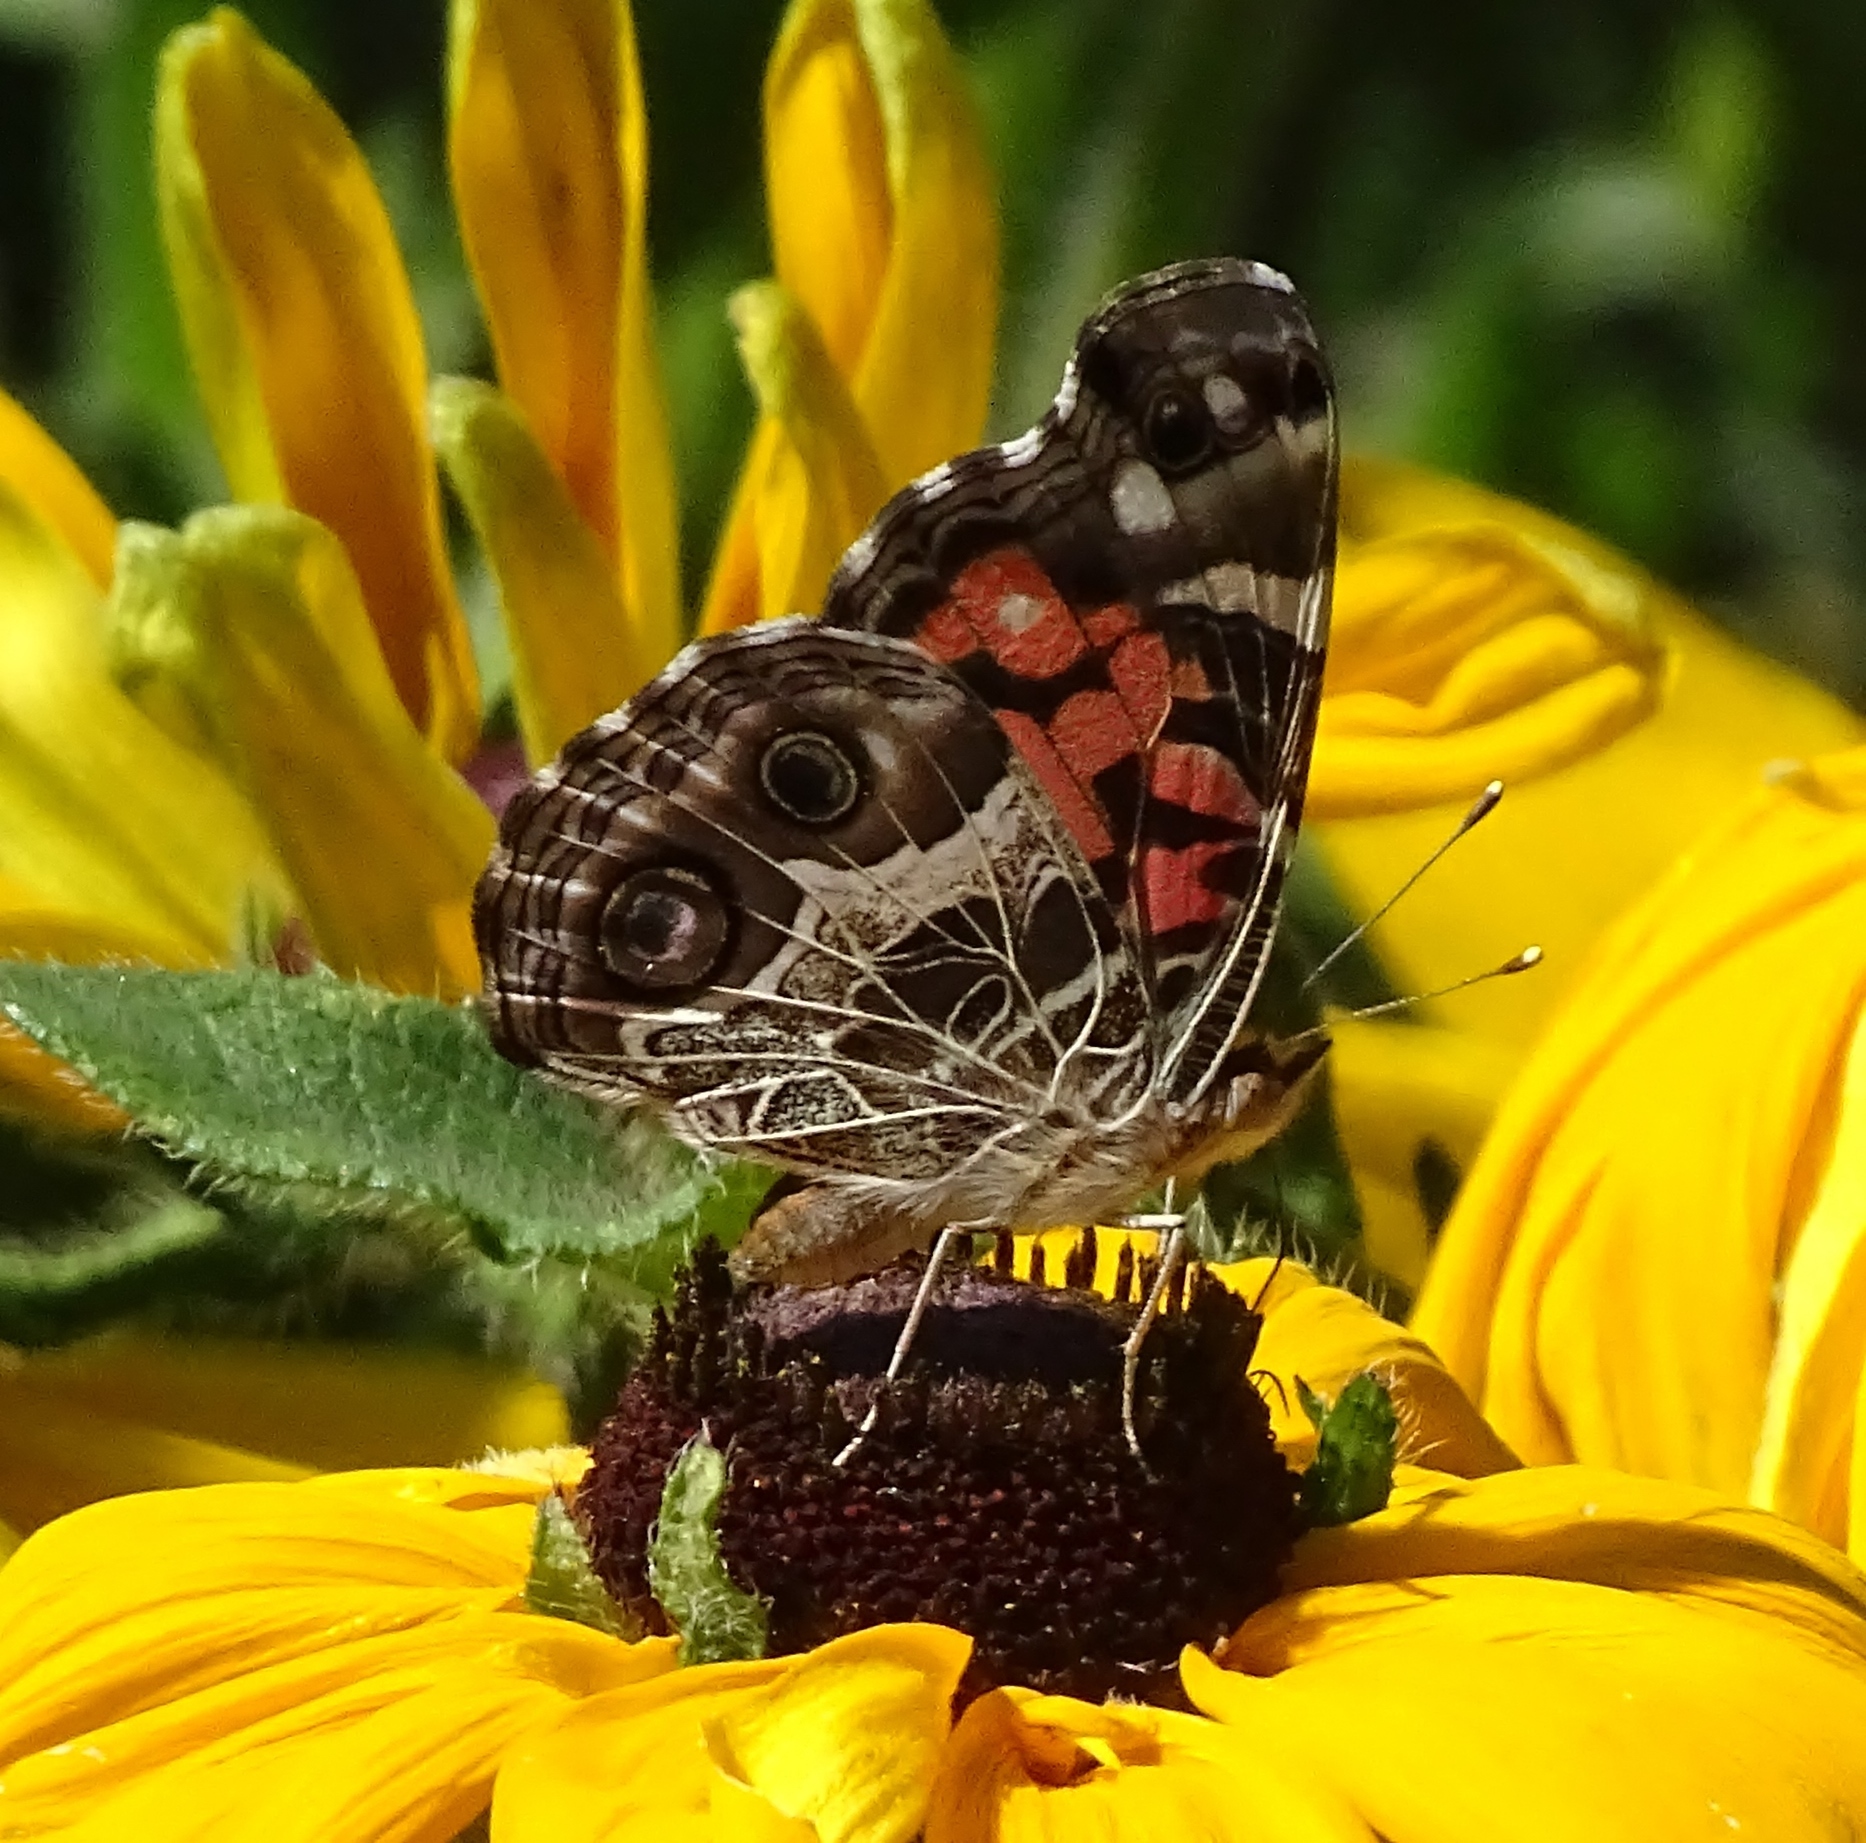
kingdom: Animalia
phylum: Arthropoda
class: Insecta
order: Lepidoptera
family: Nymphalidae
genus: Vanessa
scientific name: Vanessa virginiensis
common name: American lady
